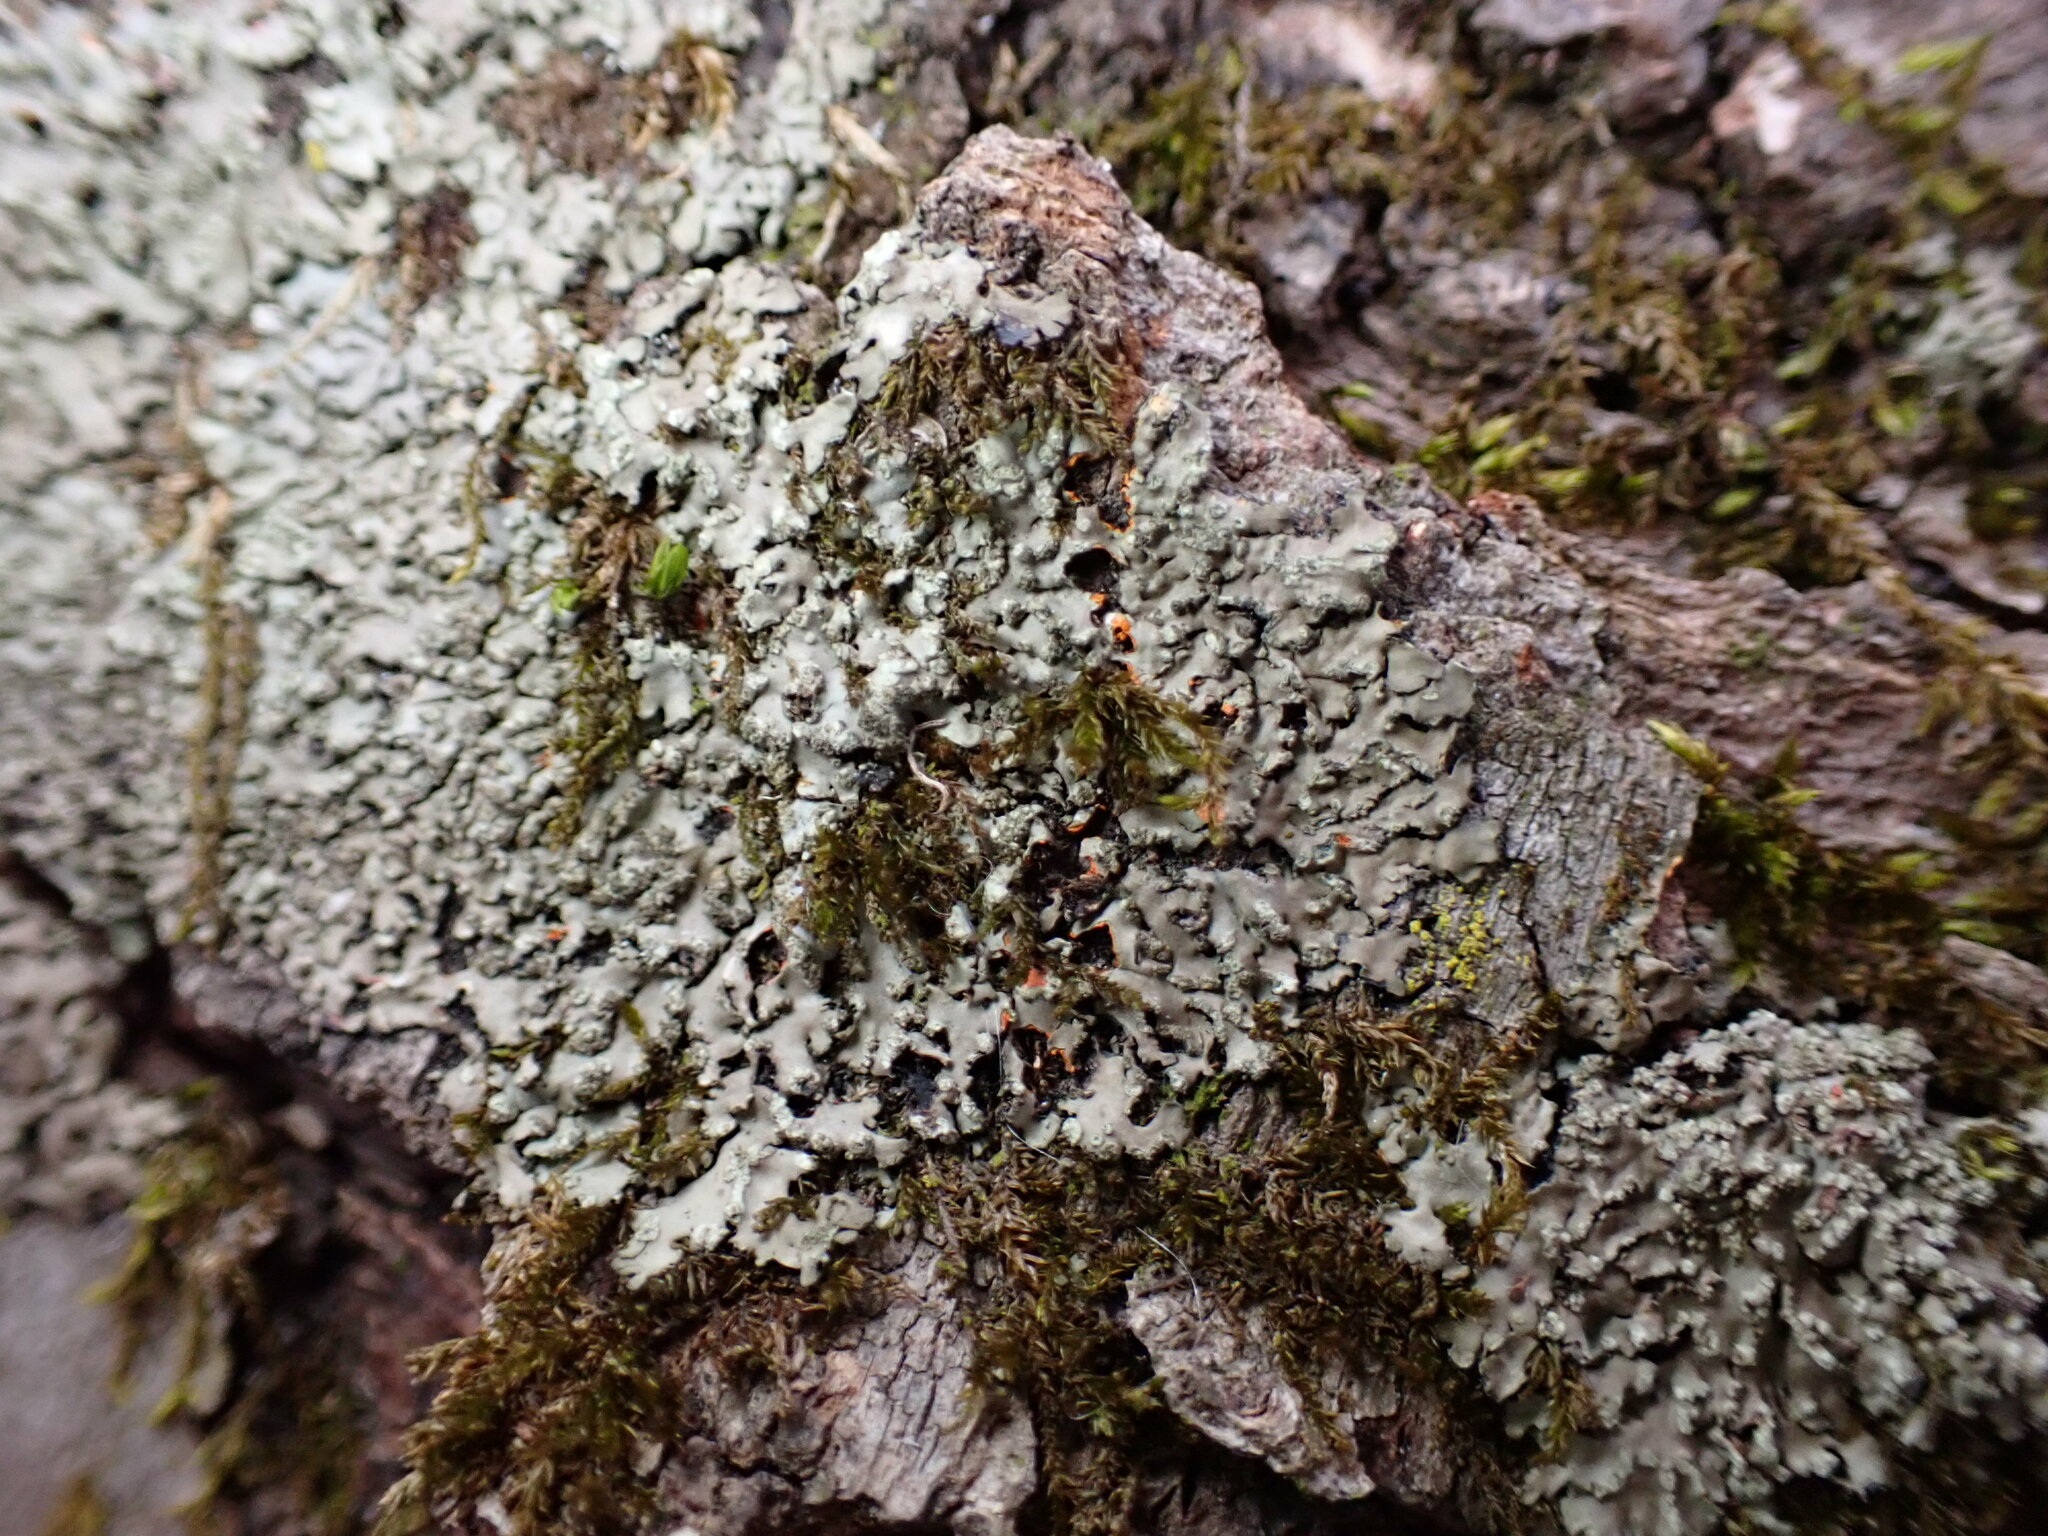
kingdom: Fungi
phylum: Ascomycota
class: Lecanoromycetes
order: Caliciales
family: Physciaceae
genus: Phaeophyscia
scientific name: Phaeophyscia rubropulchra
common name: Orange-cored shadow lichen
